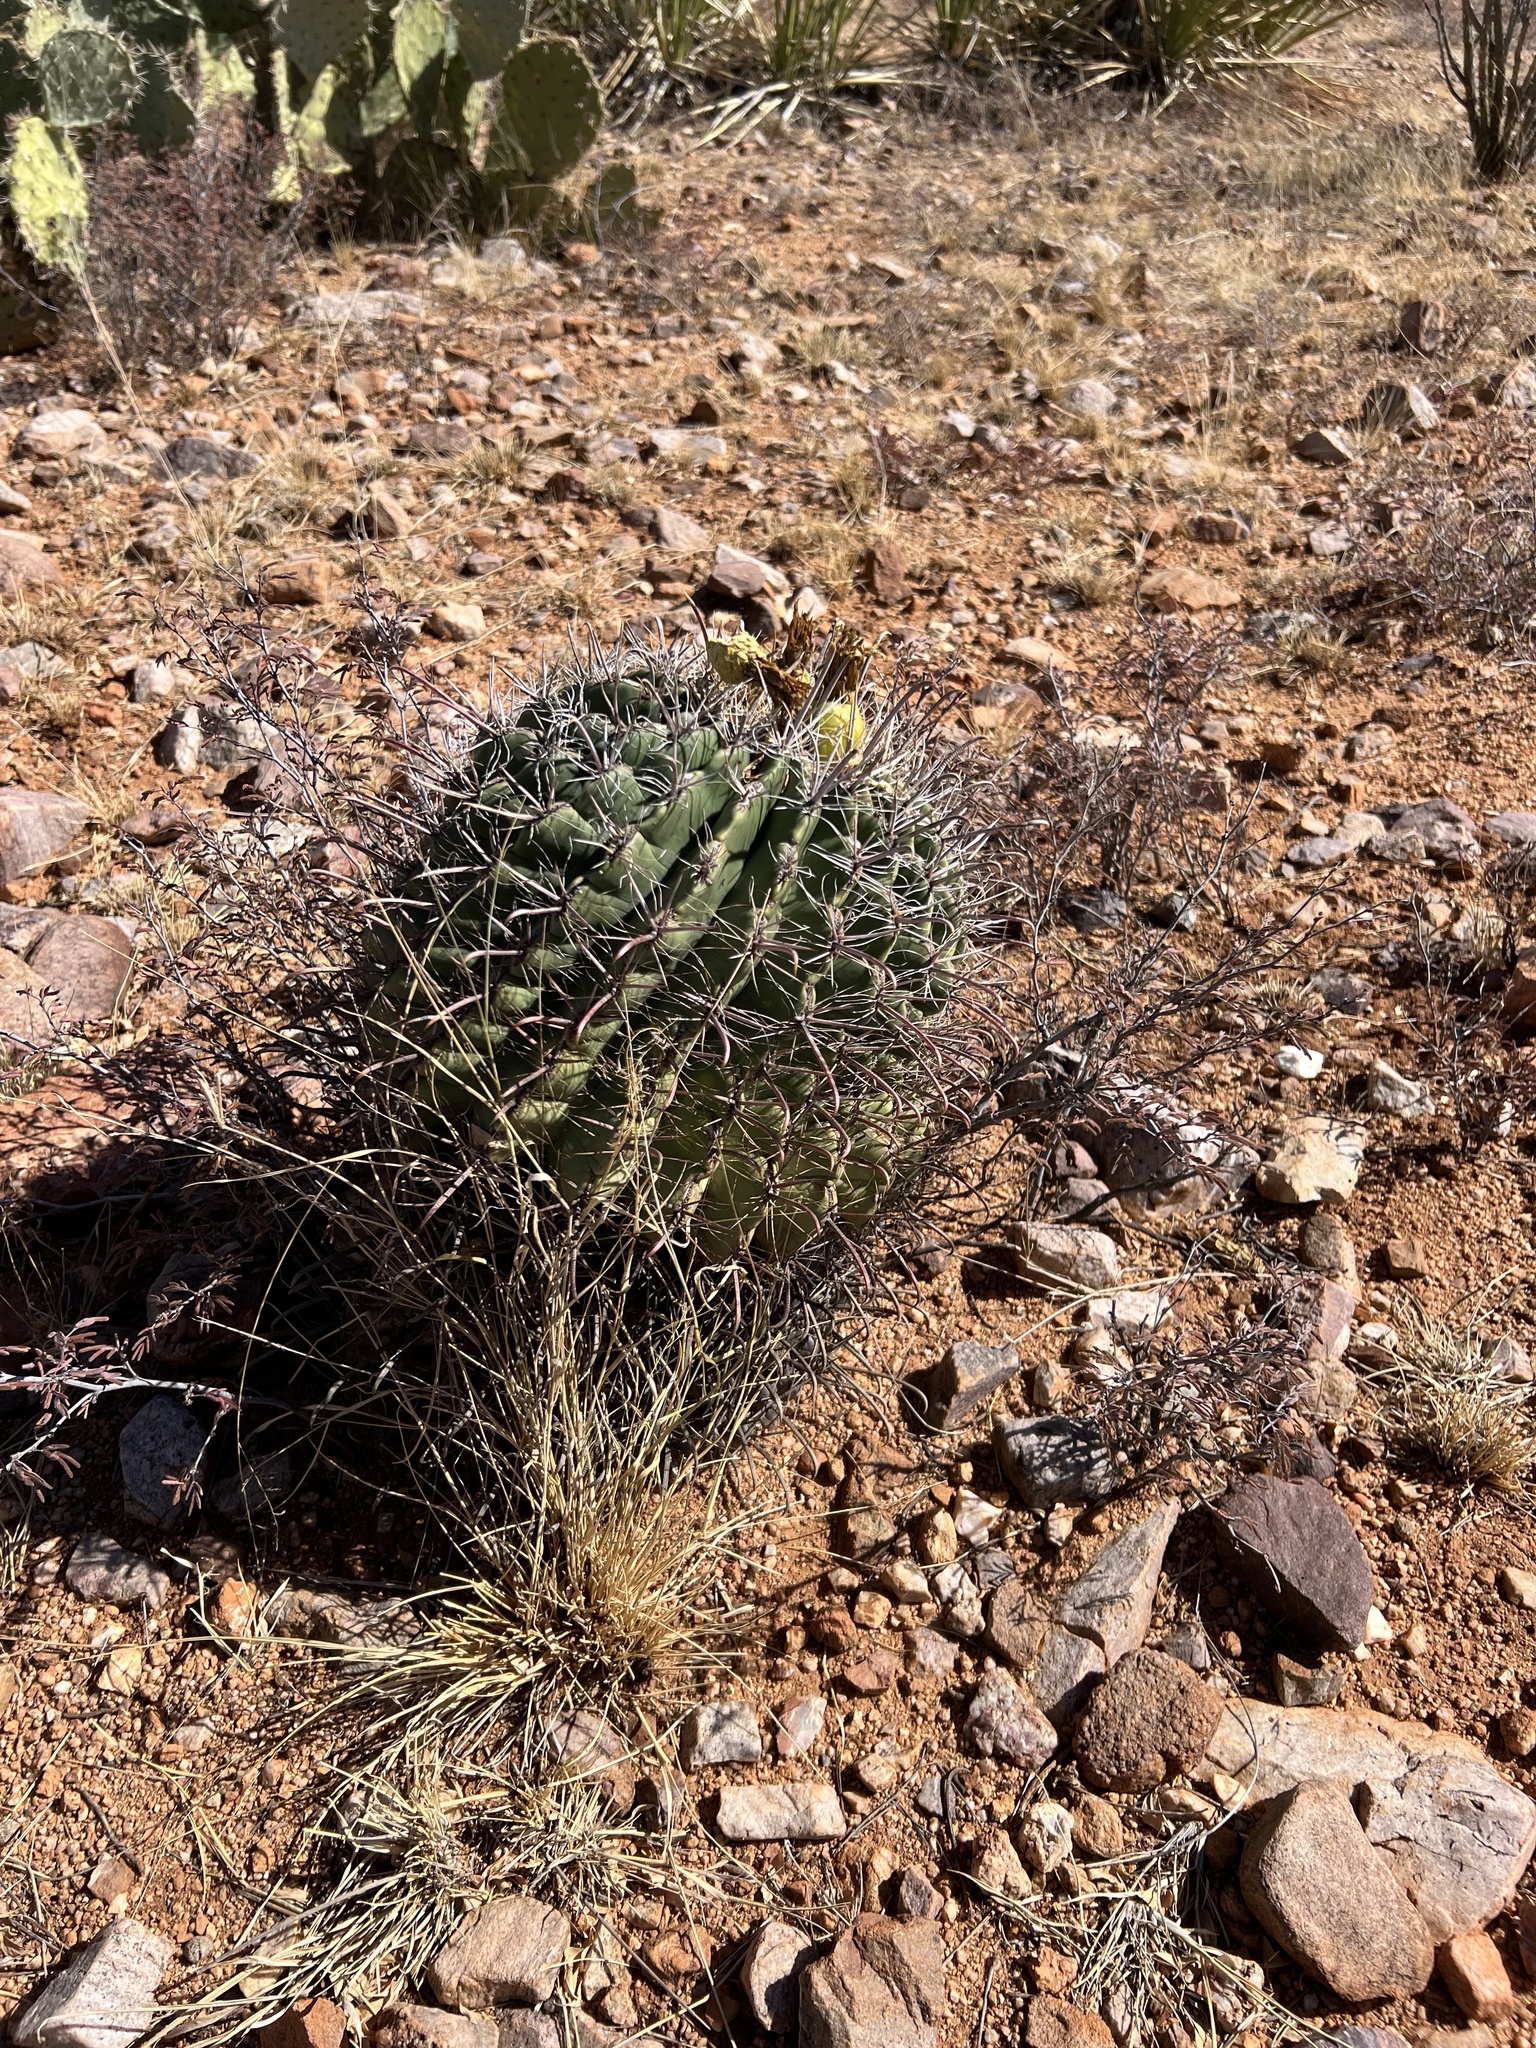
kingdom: Plantae
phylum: Tracheophyta
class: Magnoliopsida
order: Caryophyllales
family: Cactaceae
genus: Ferocactus
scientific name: Ferocactus wislizeni
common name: Candy barrel cactus
